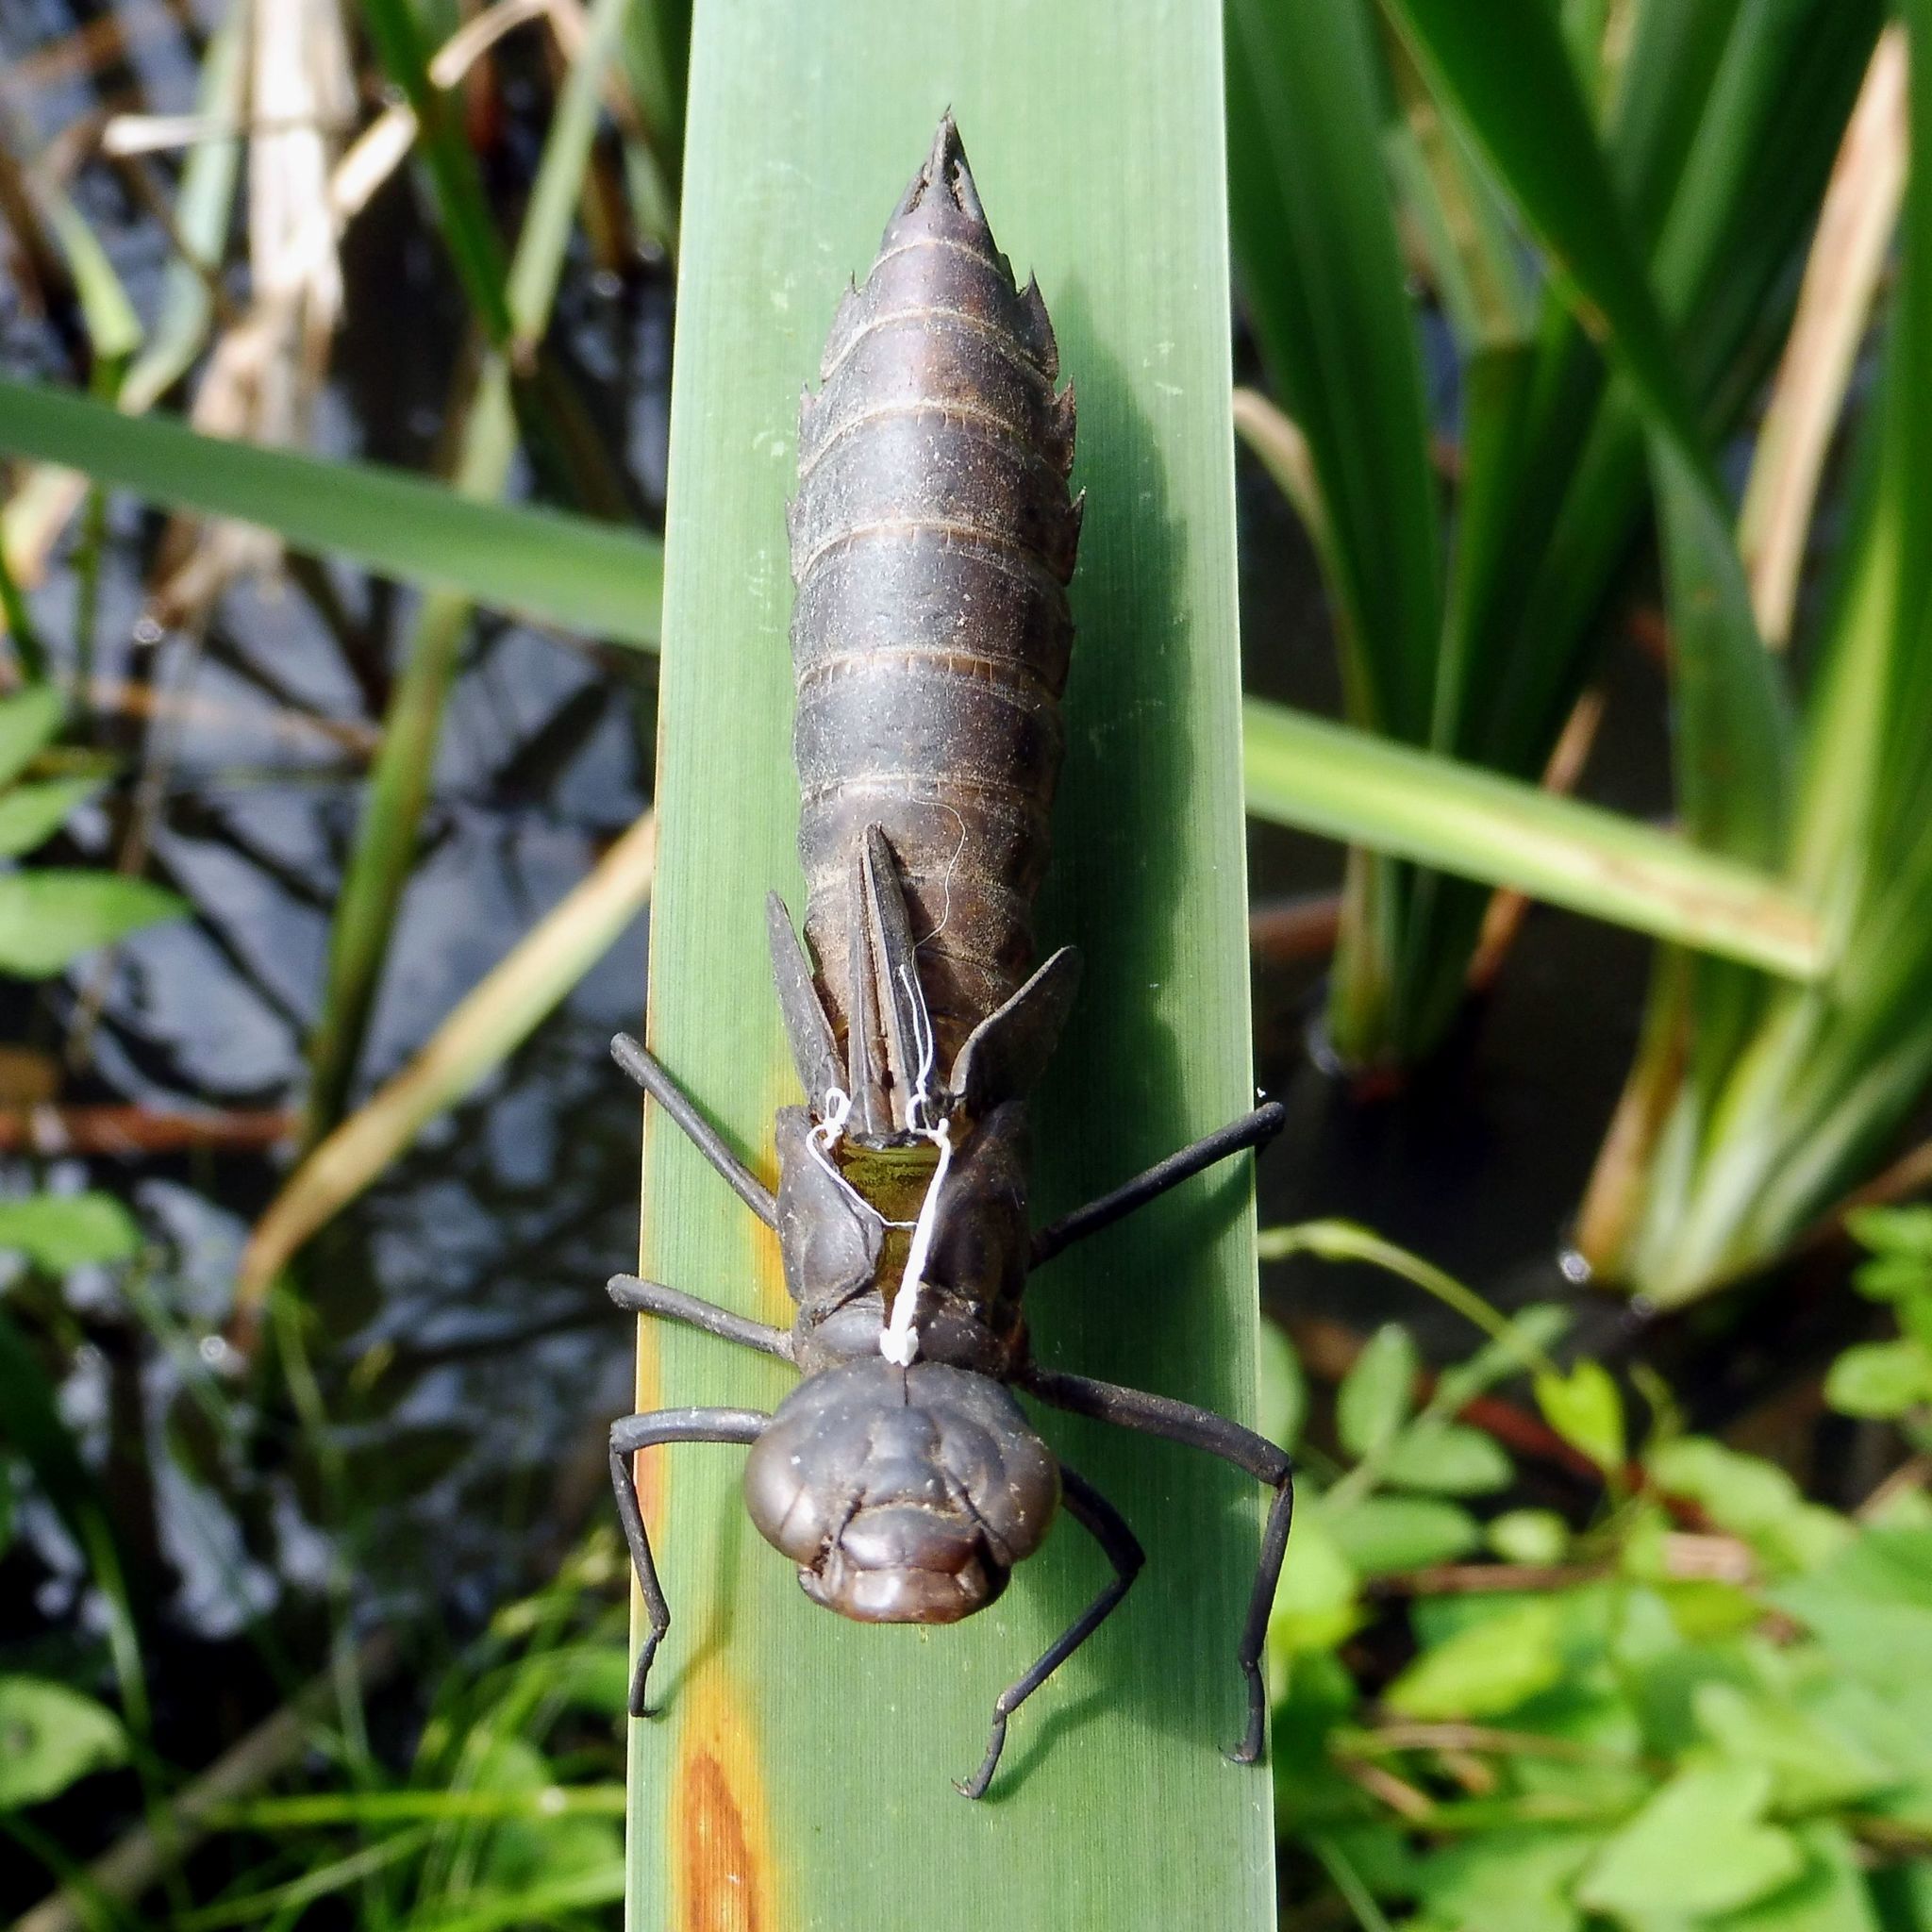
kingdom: Animalia
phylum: Arthropoda
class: Insecta
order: Odonata
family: Aeshnidae
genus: Anax
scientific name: Anax imperator
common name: Emperor dragonfly
